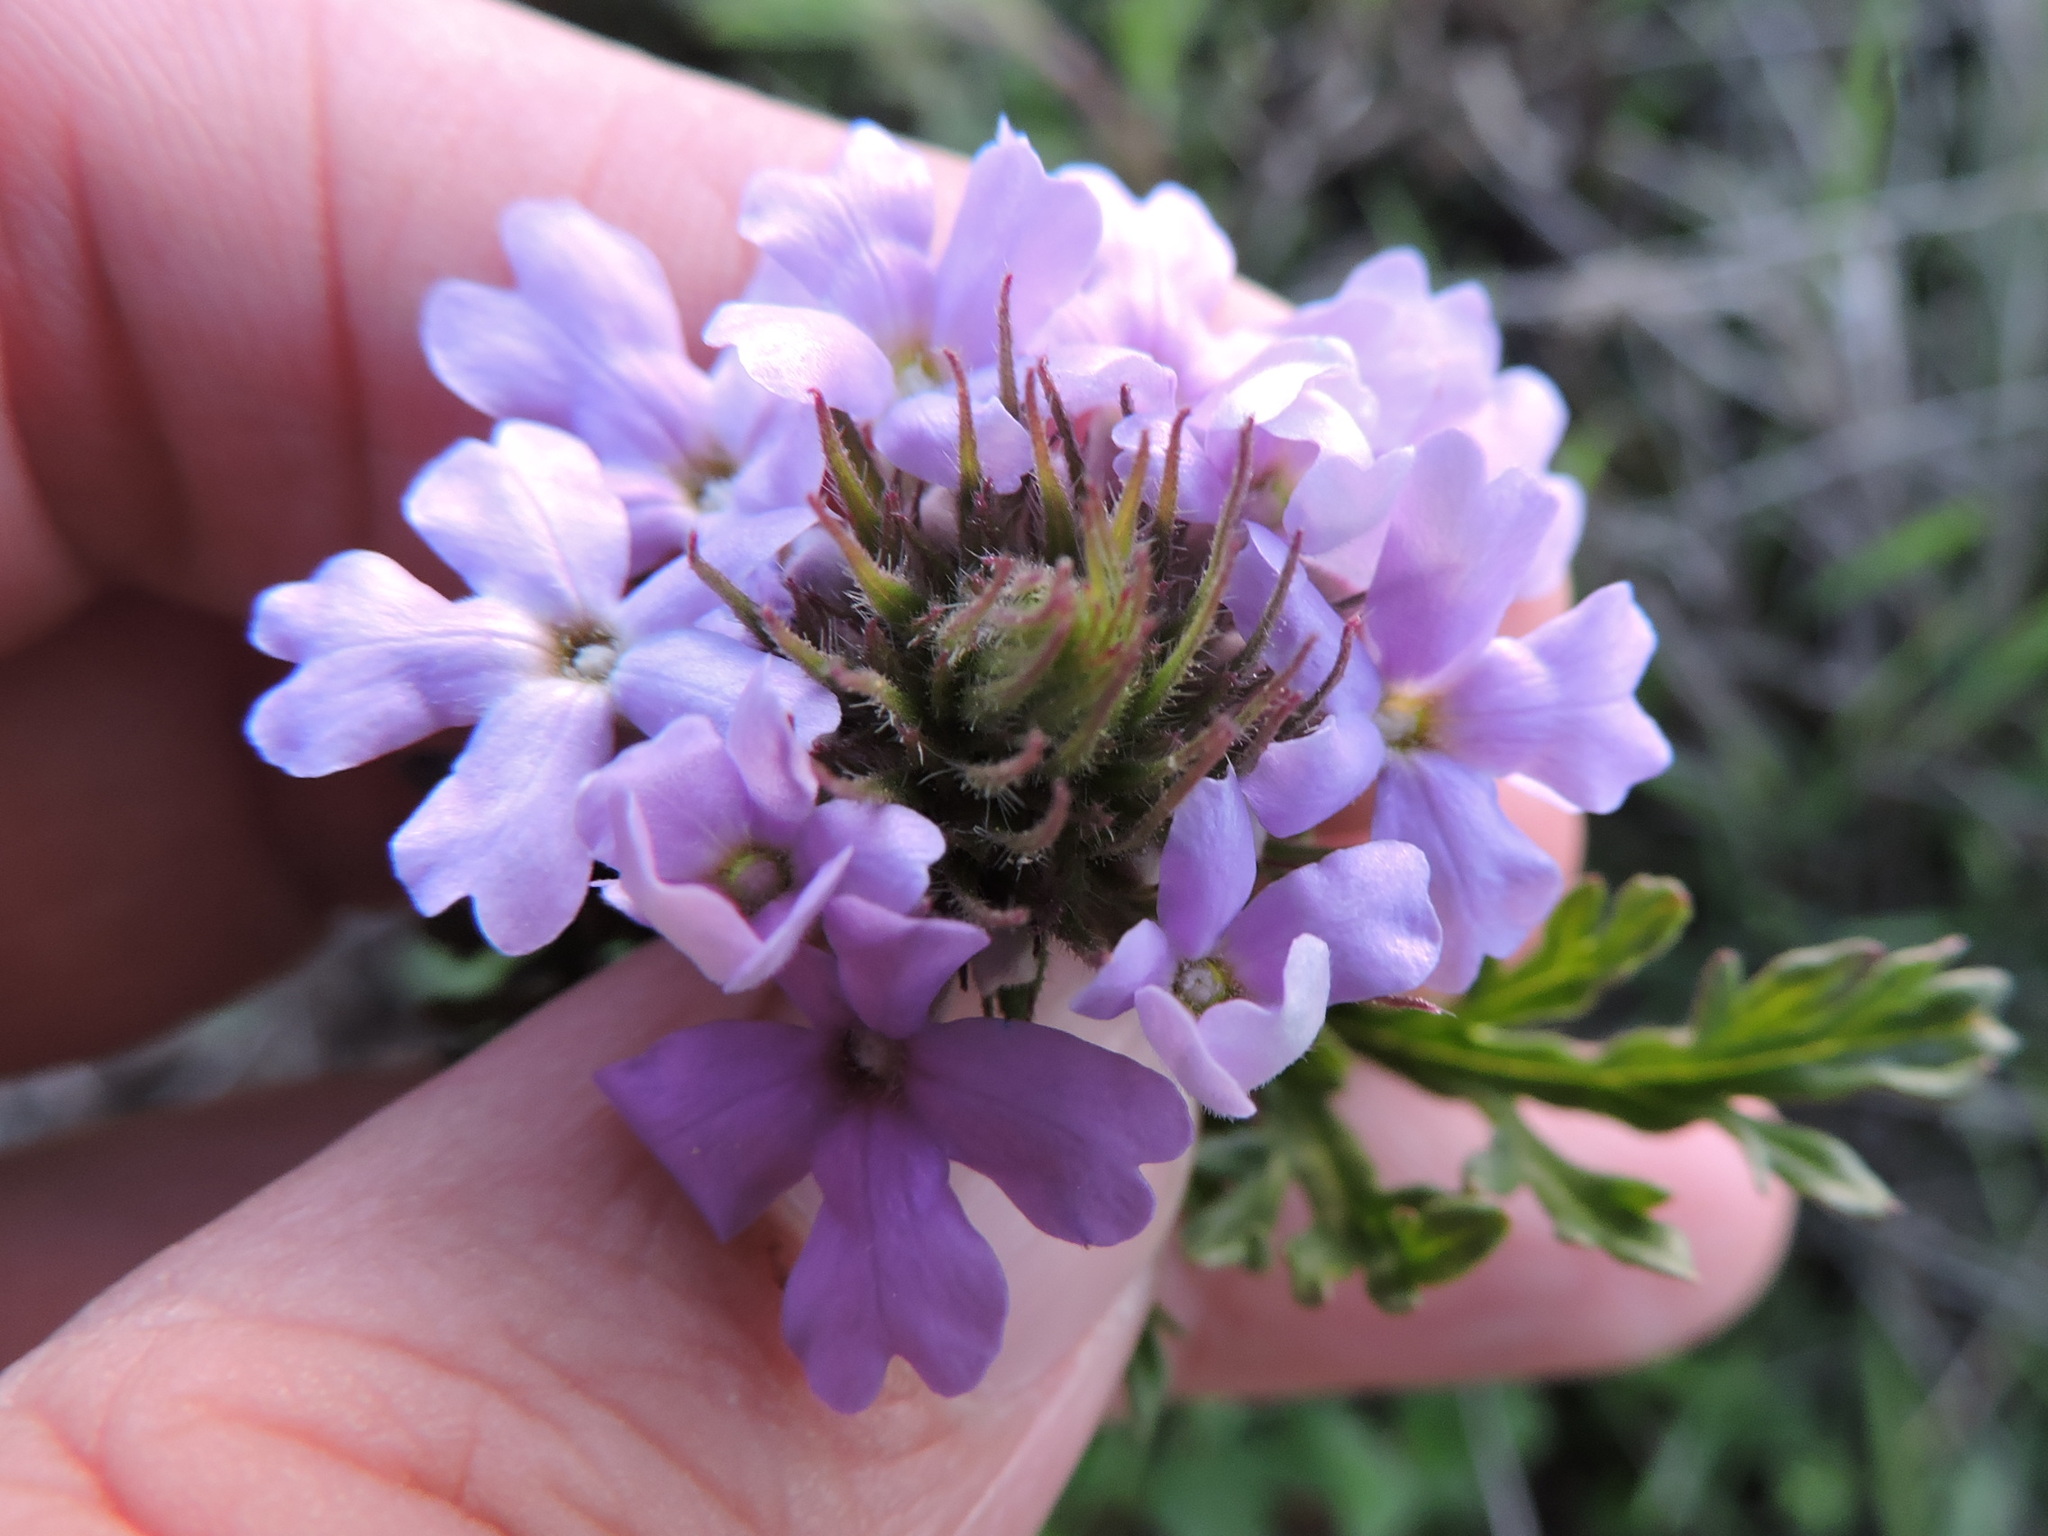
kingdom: Plantae
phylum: Tracheophyta
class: Magnoliopsida
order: Lamiales
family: Verbenaceae
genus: Verbena
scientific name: Verbena bipinnatifida
